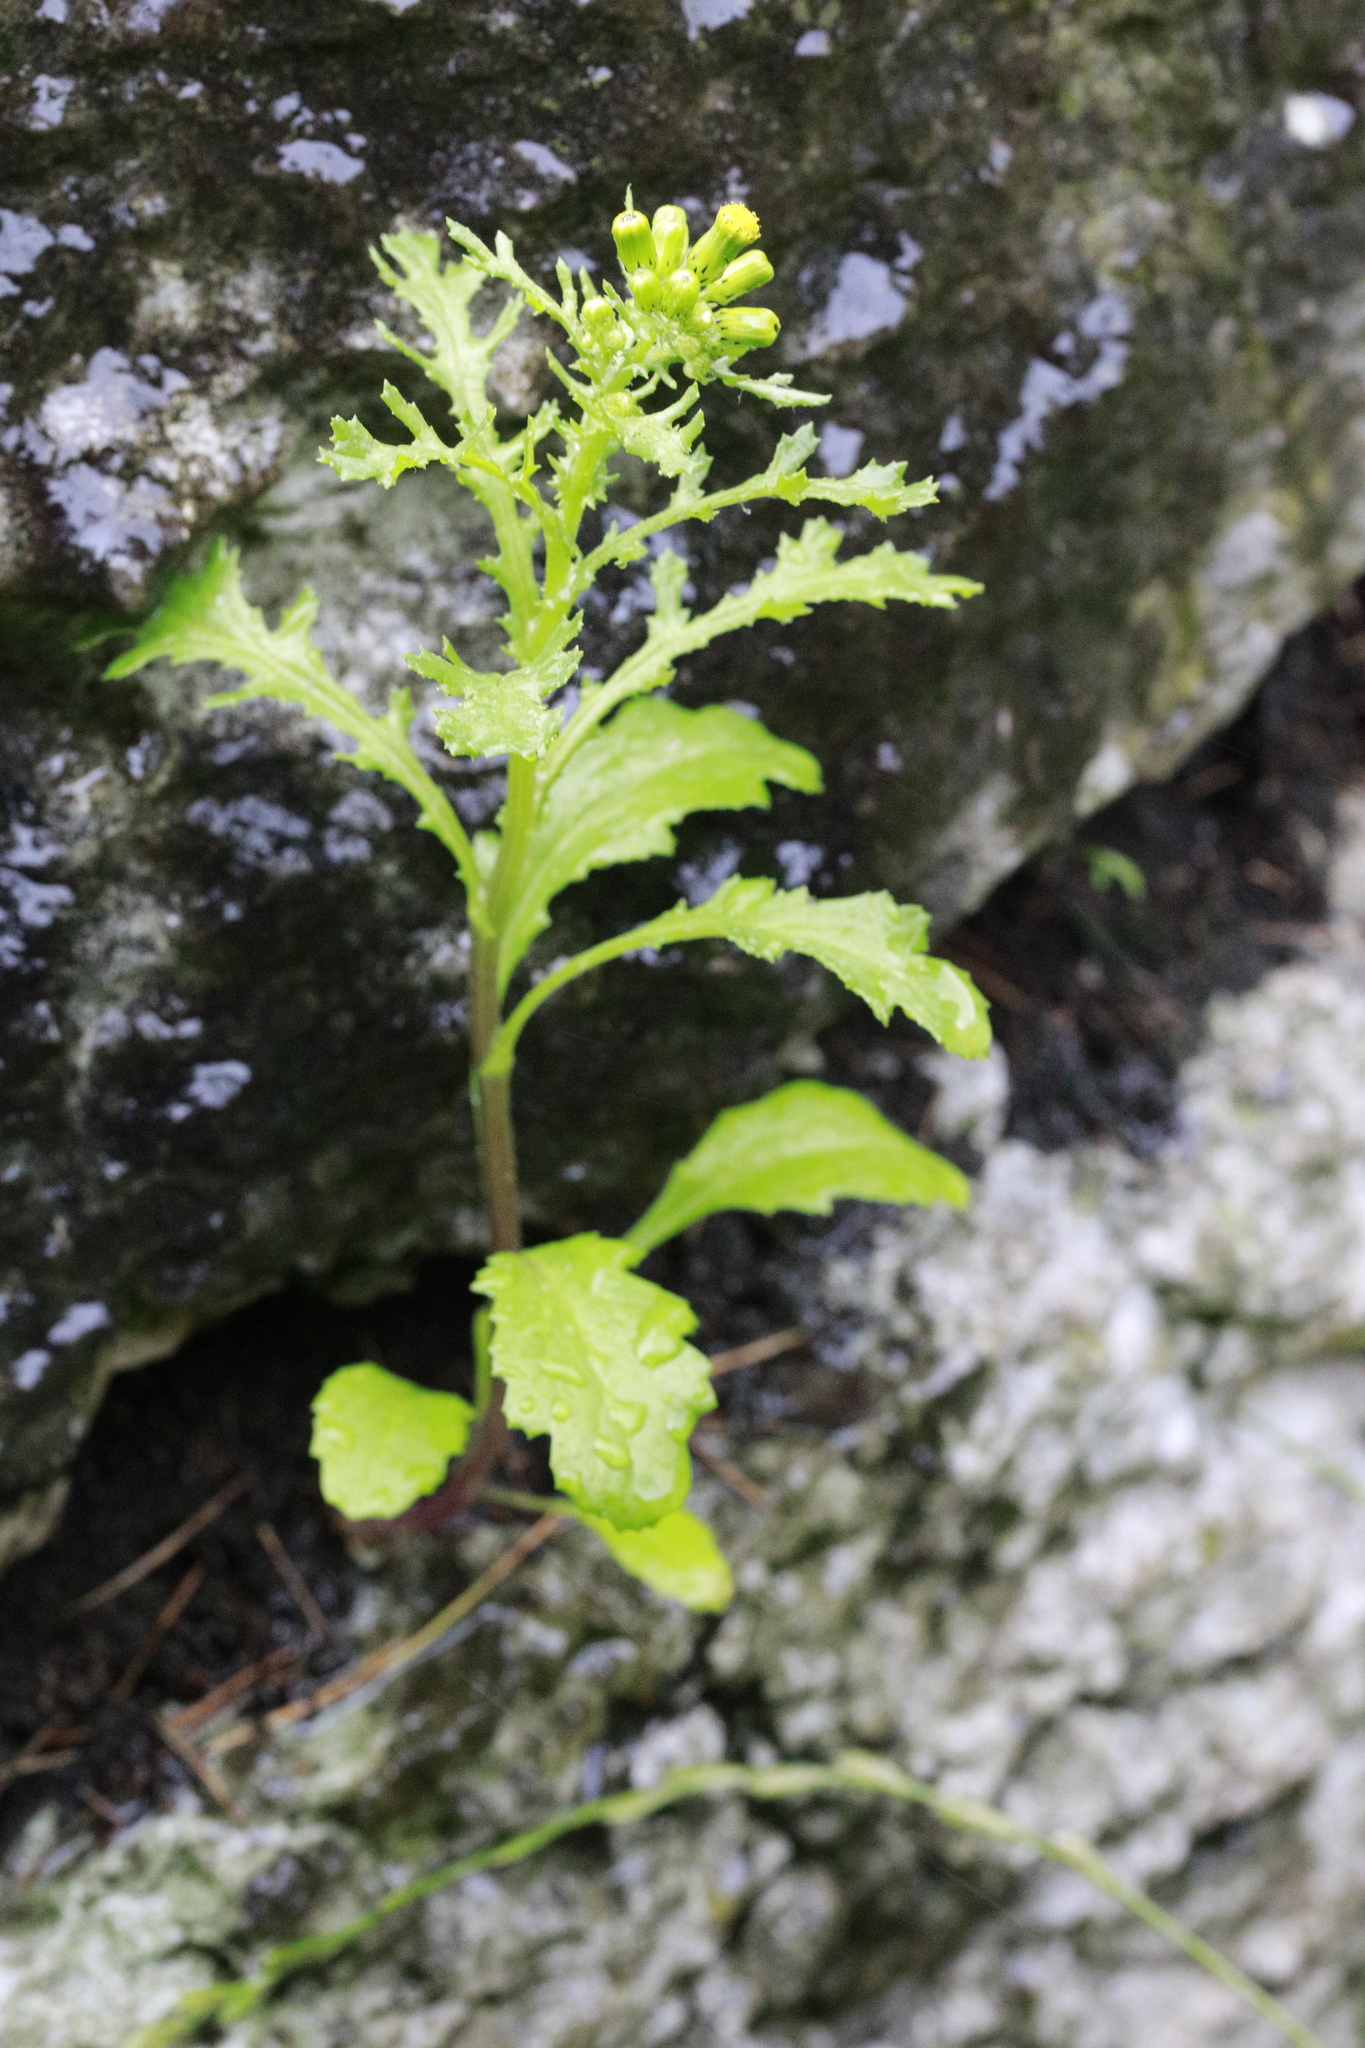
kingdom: Plantae
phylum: Tracheophyta
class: Magnoliopsida
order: Asterales
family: Asteraceae
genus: Senecio
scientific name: Senecio vulgaris
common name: Old-man-in-the-spring
